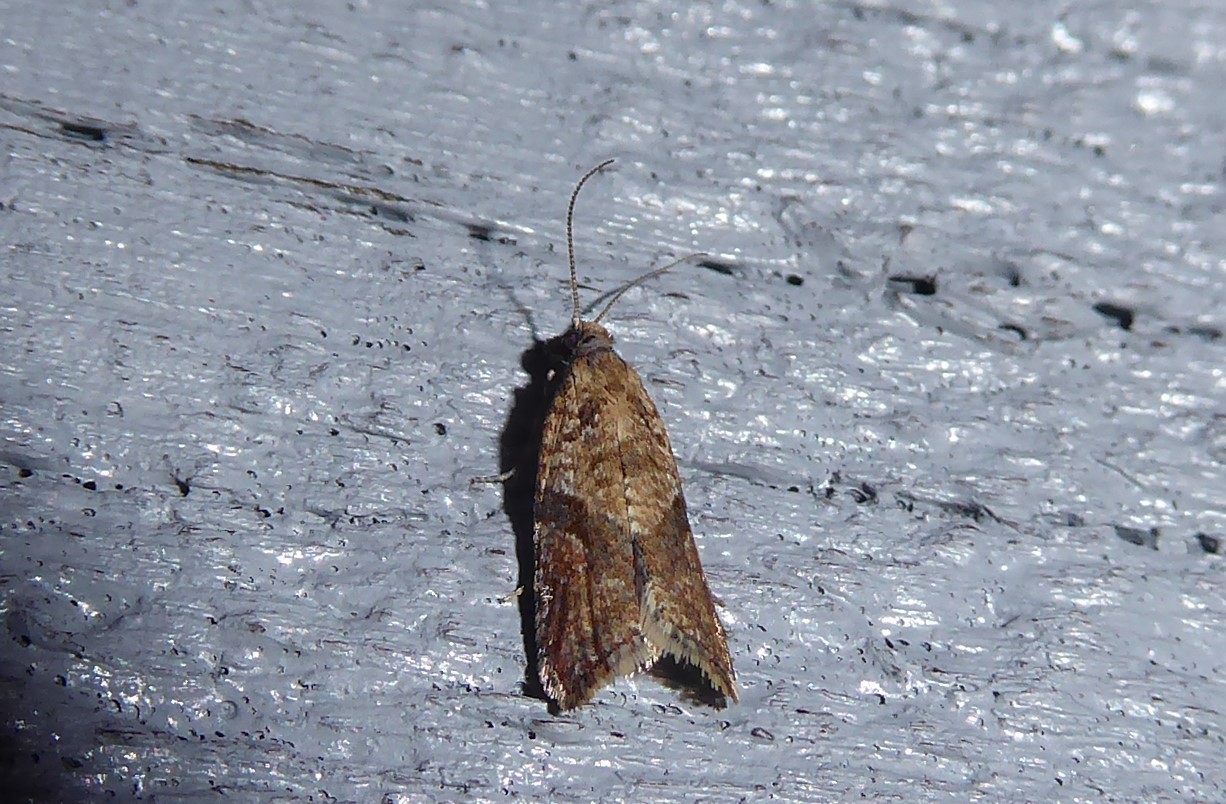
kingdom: Animalia
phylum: Arthropoda
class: Insecta
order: Lepidoptera
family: Tortricidae
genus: Capua
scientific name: Capua semiferana
